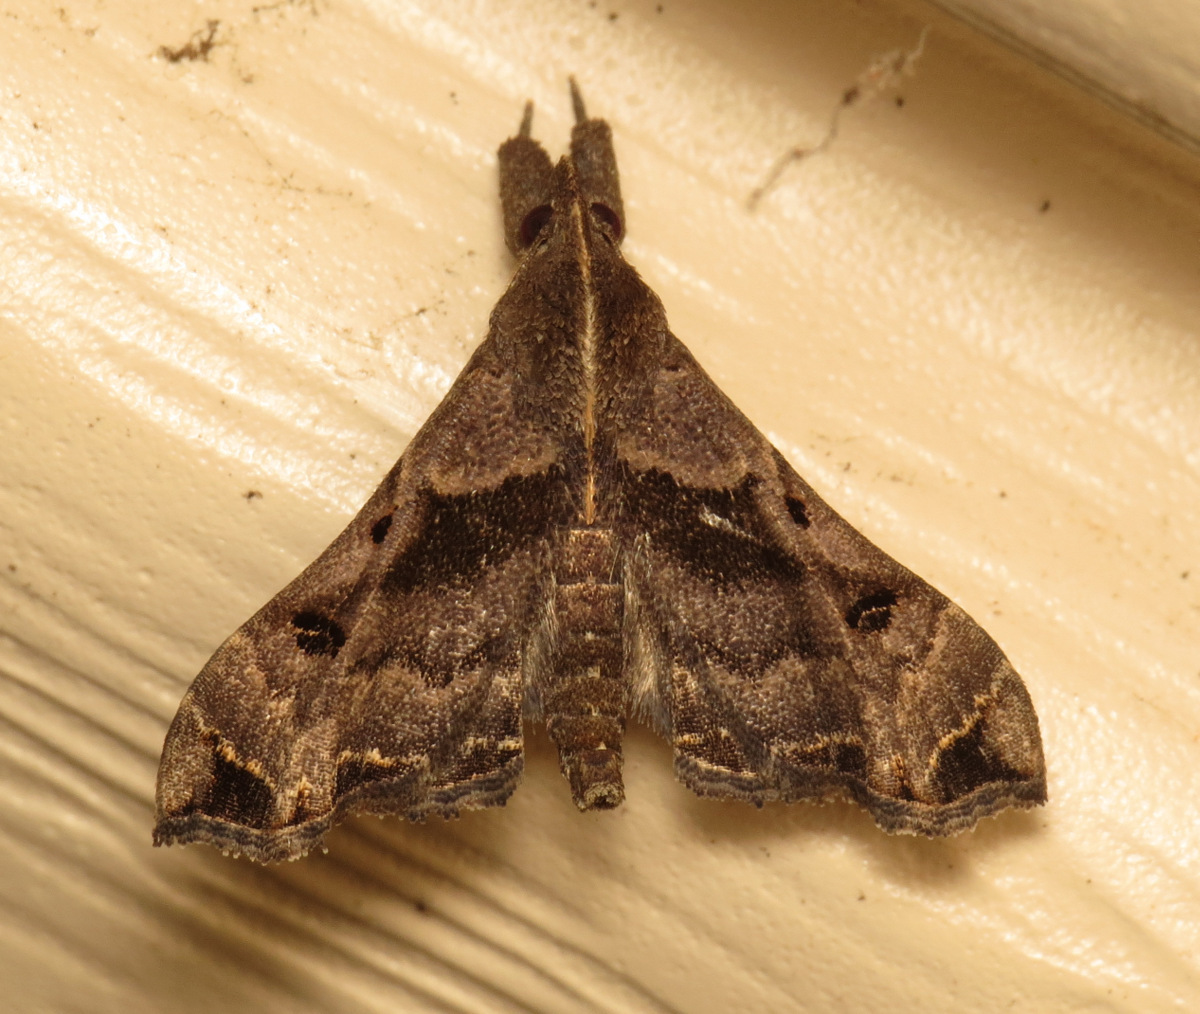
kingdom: Animalia
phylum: Arthropoda
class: Insecta
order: Lepidoptera
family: Erebidae
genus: Palthis
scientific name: Palthis asopialis
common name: Faint-spotted palthis moth
